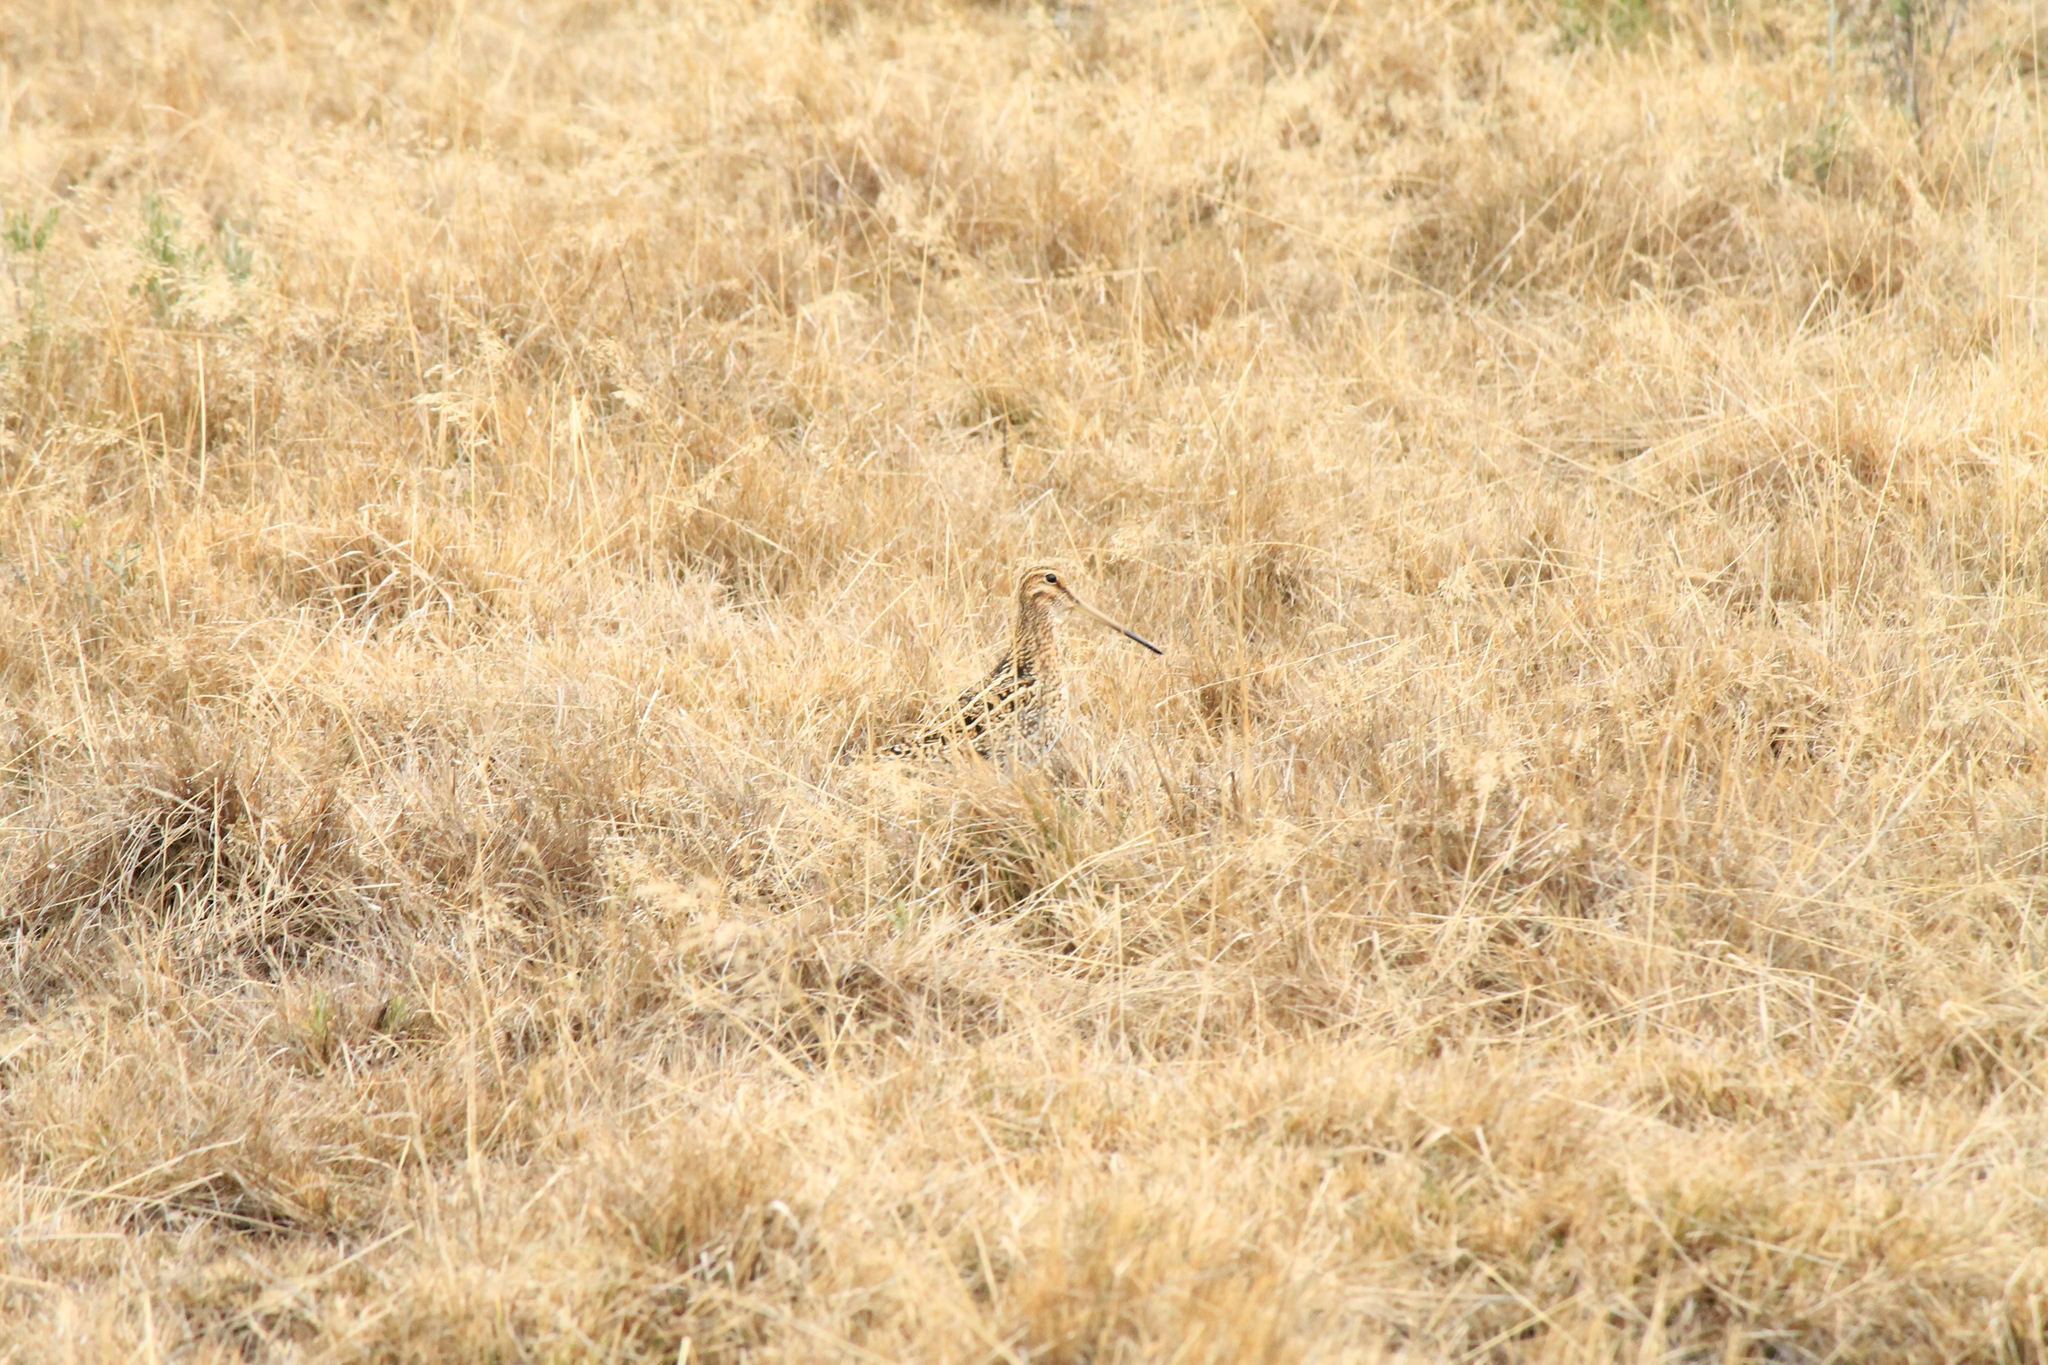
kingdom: Animalia
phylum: Chordata
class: Aves
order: Charadriiformes
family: Scolopacidae
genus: Gallinago
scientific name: Gallinago magellanica
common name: Magellanic snipe
